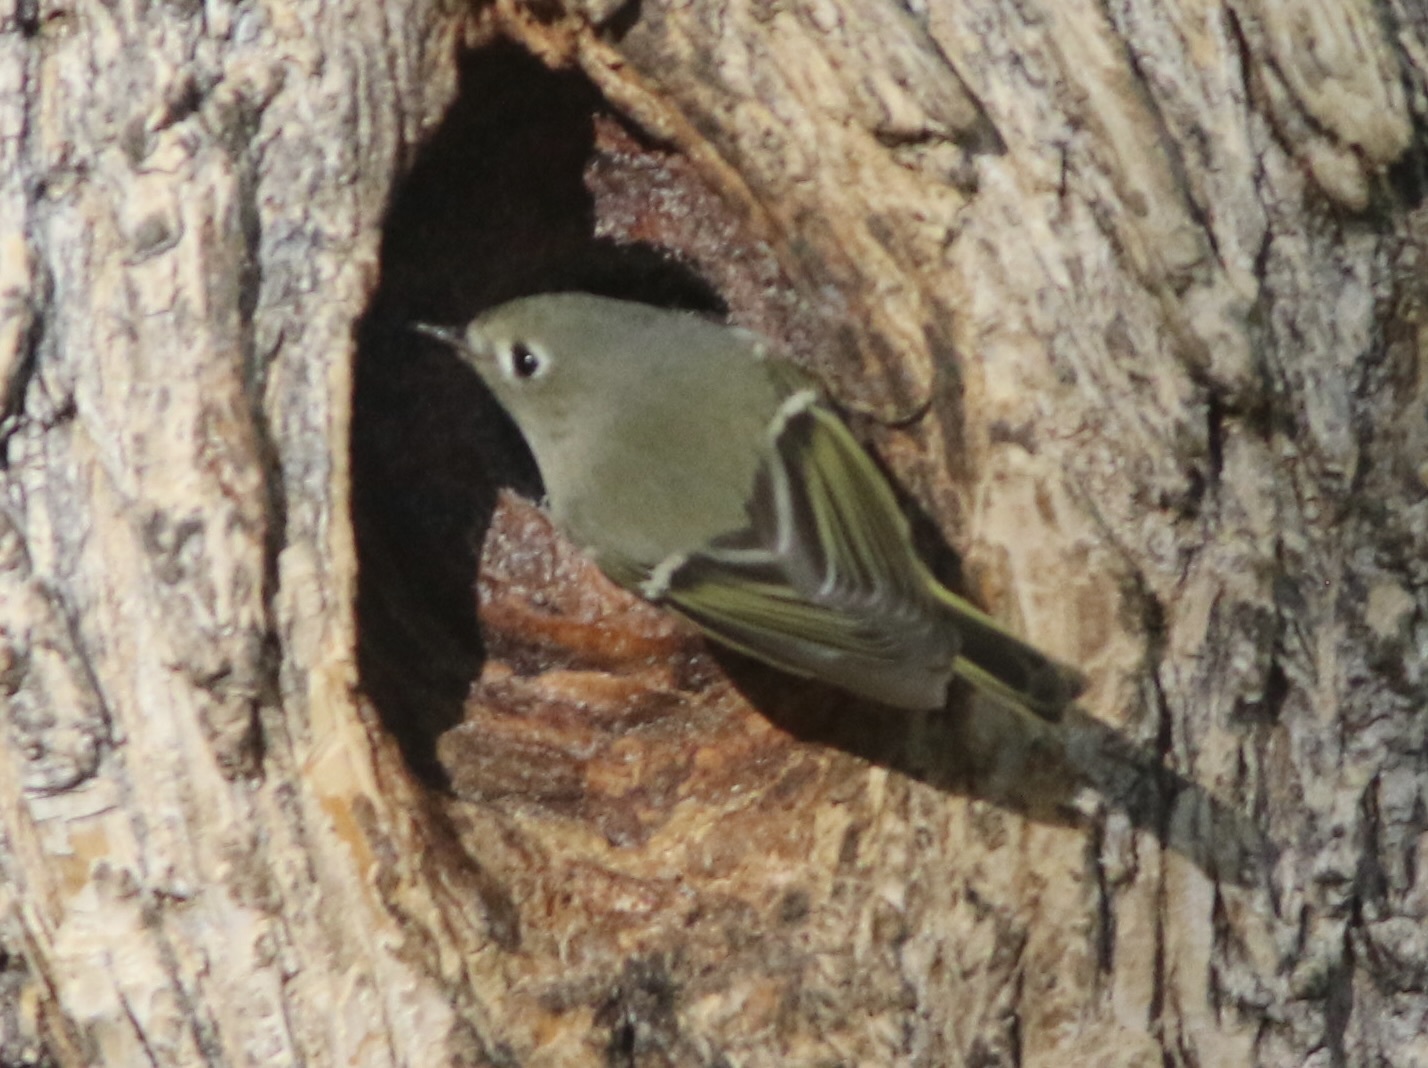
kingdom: Animalia
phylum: Chordata
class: Aves
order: Passeriformes
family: Regulidae
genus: Regulus
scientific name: Regulus calendula
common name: Ruby-crowned kinglet
